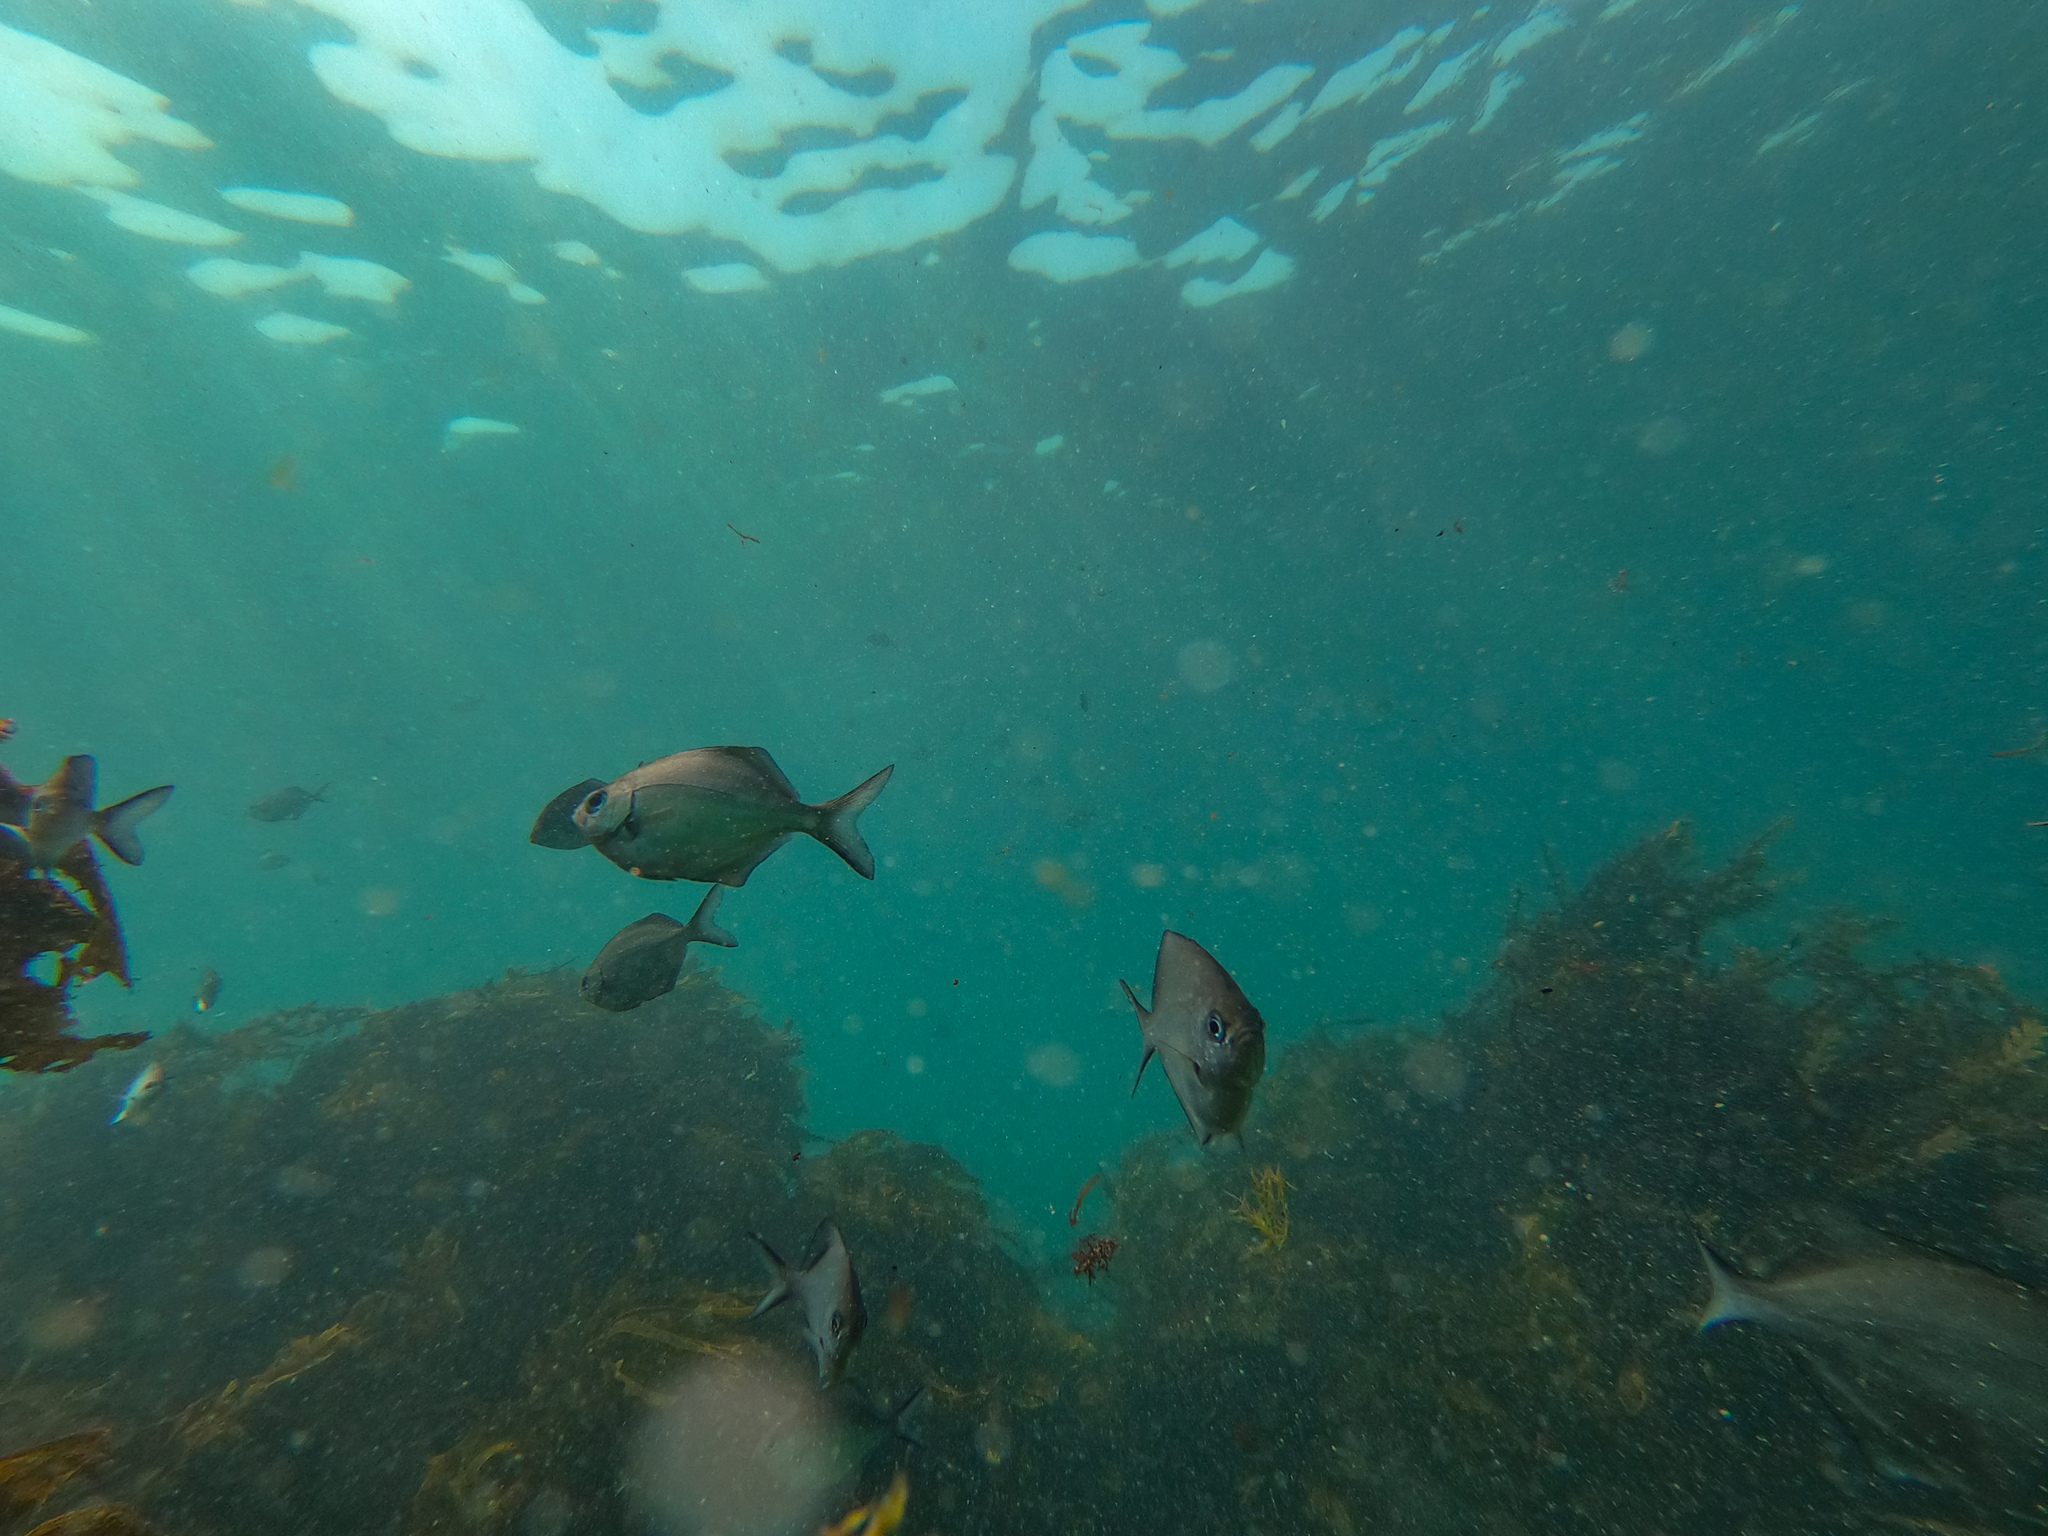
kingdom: Animalia
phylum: Chordata
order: Perciformes
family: Kyphosidae
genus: Scorpis
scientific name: Scorpis lineolata
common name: Sweep
